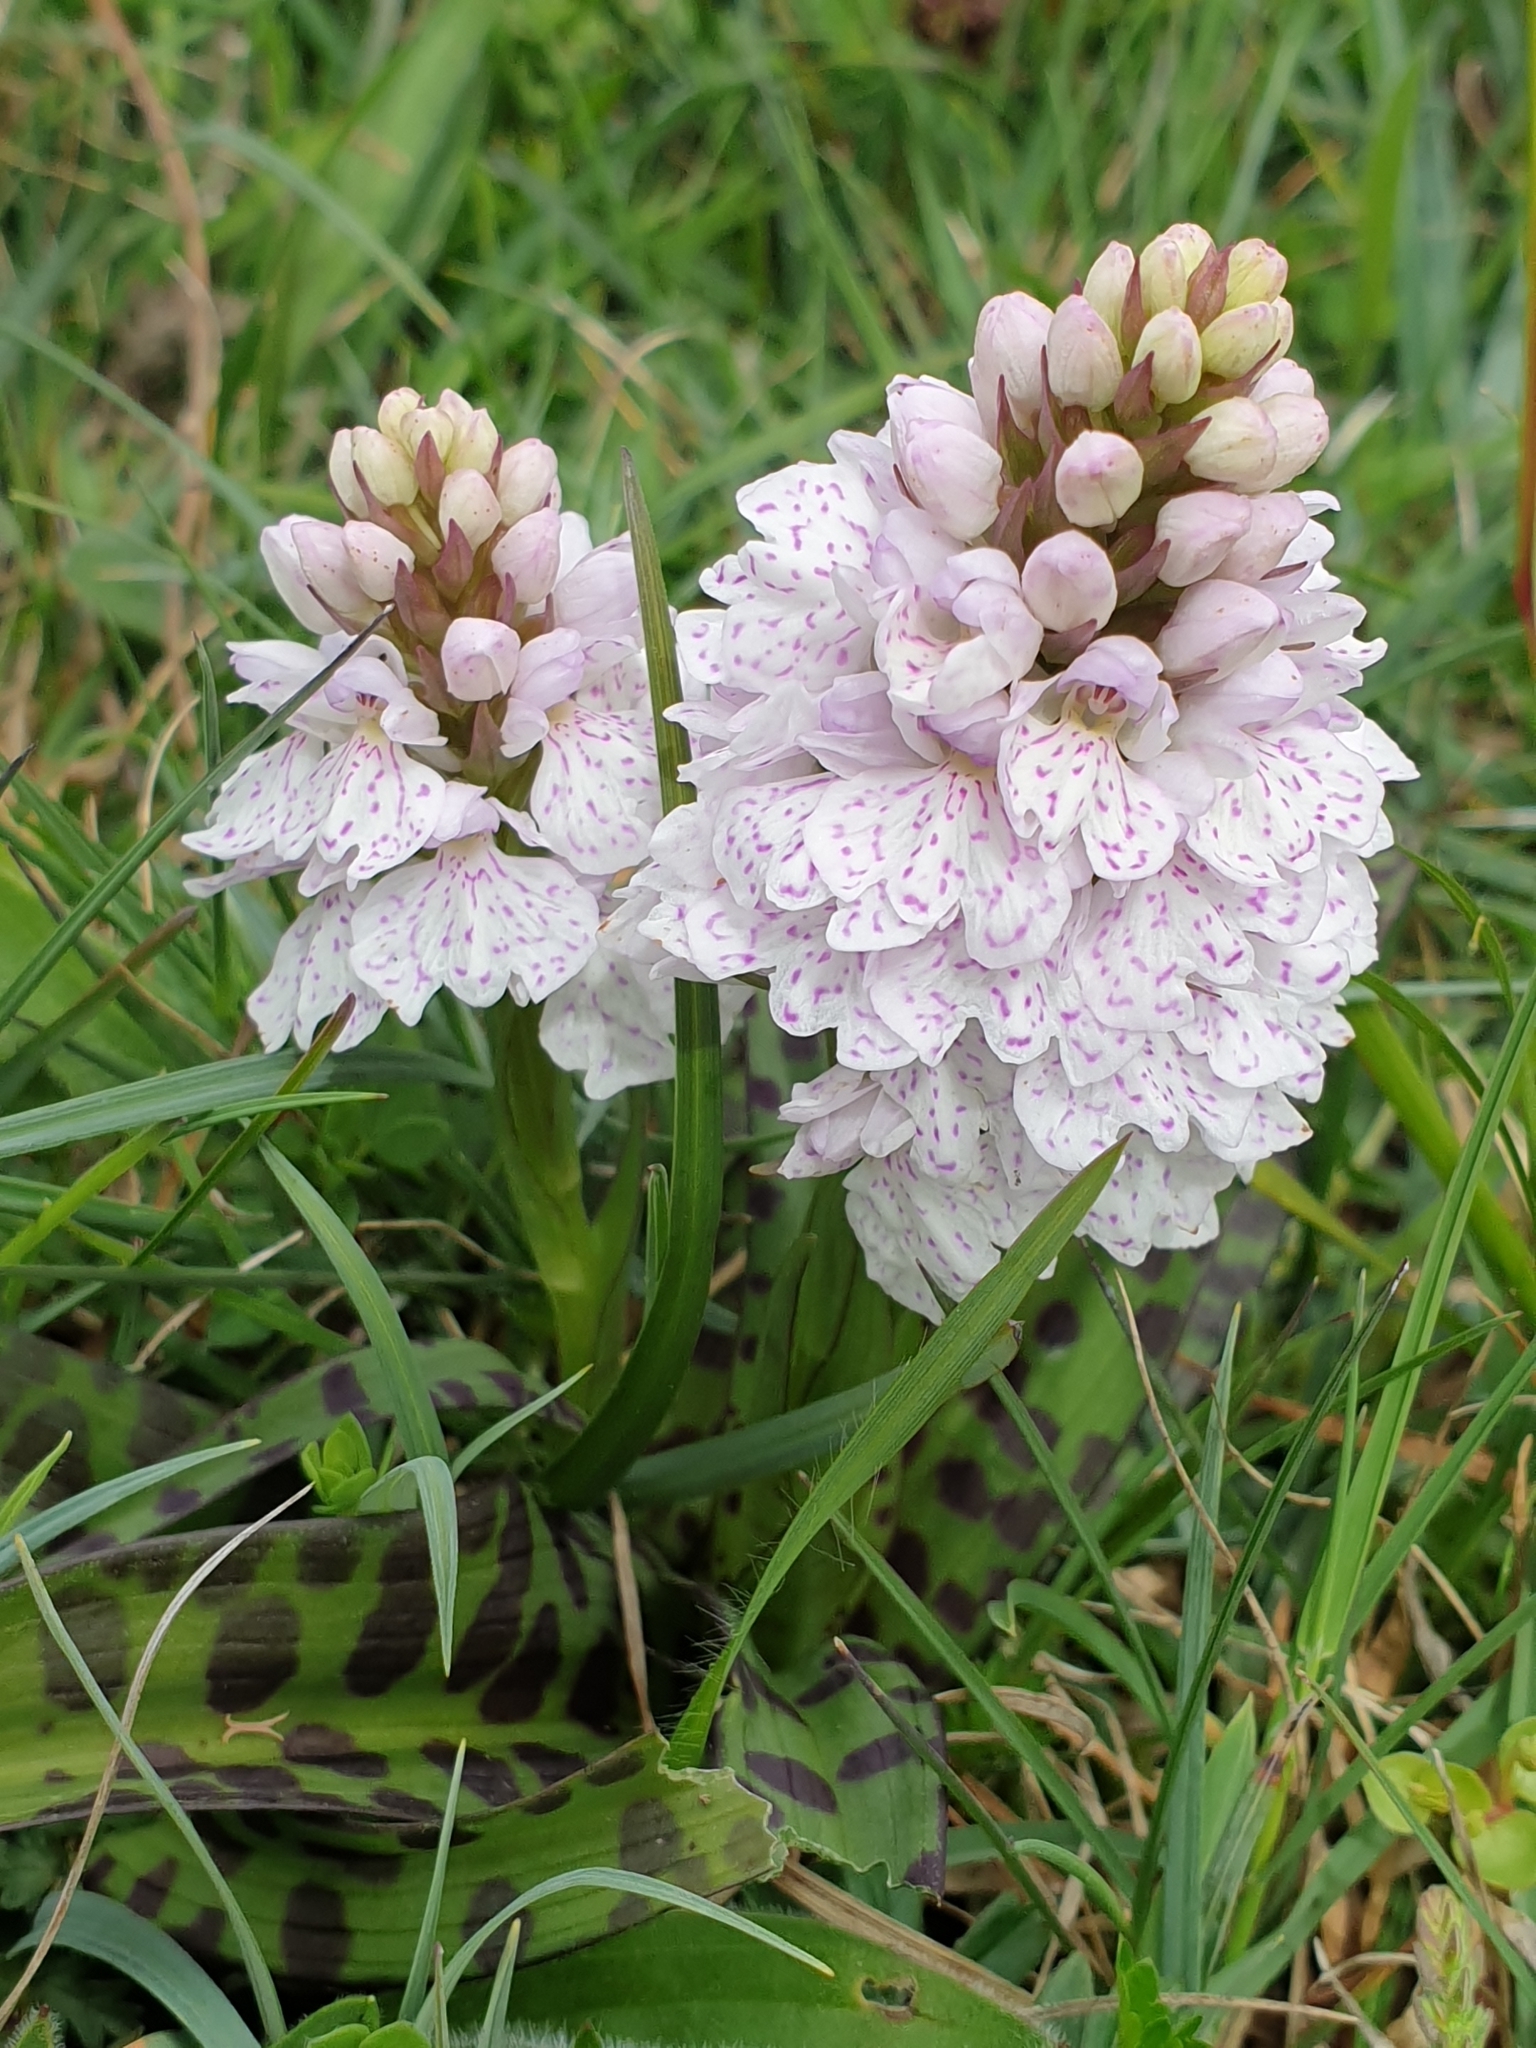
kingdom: Plantae
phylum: Tracheophyta
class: Liliopsida
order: Asparagales
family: Orchidaceae
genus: Dactylorhiza
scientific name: Dactylorhiza maculata
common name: Heath spotted-orchid
